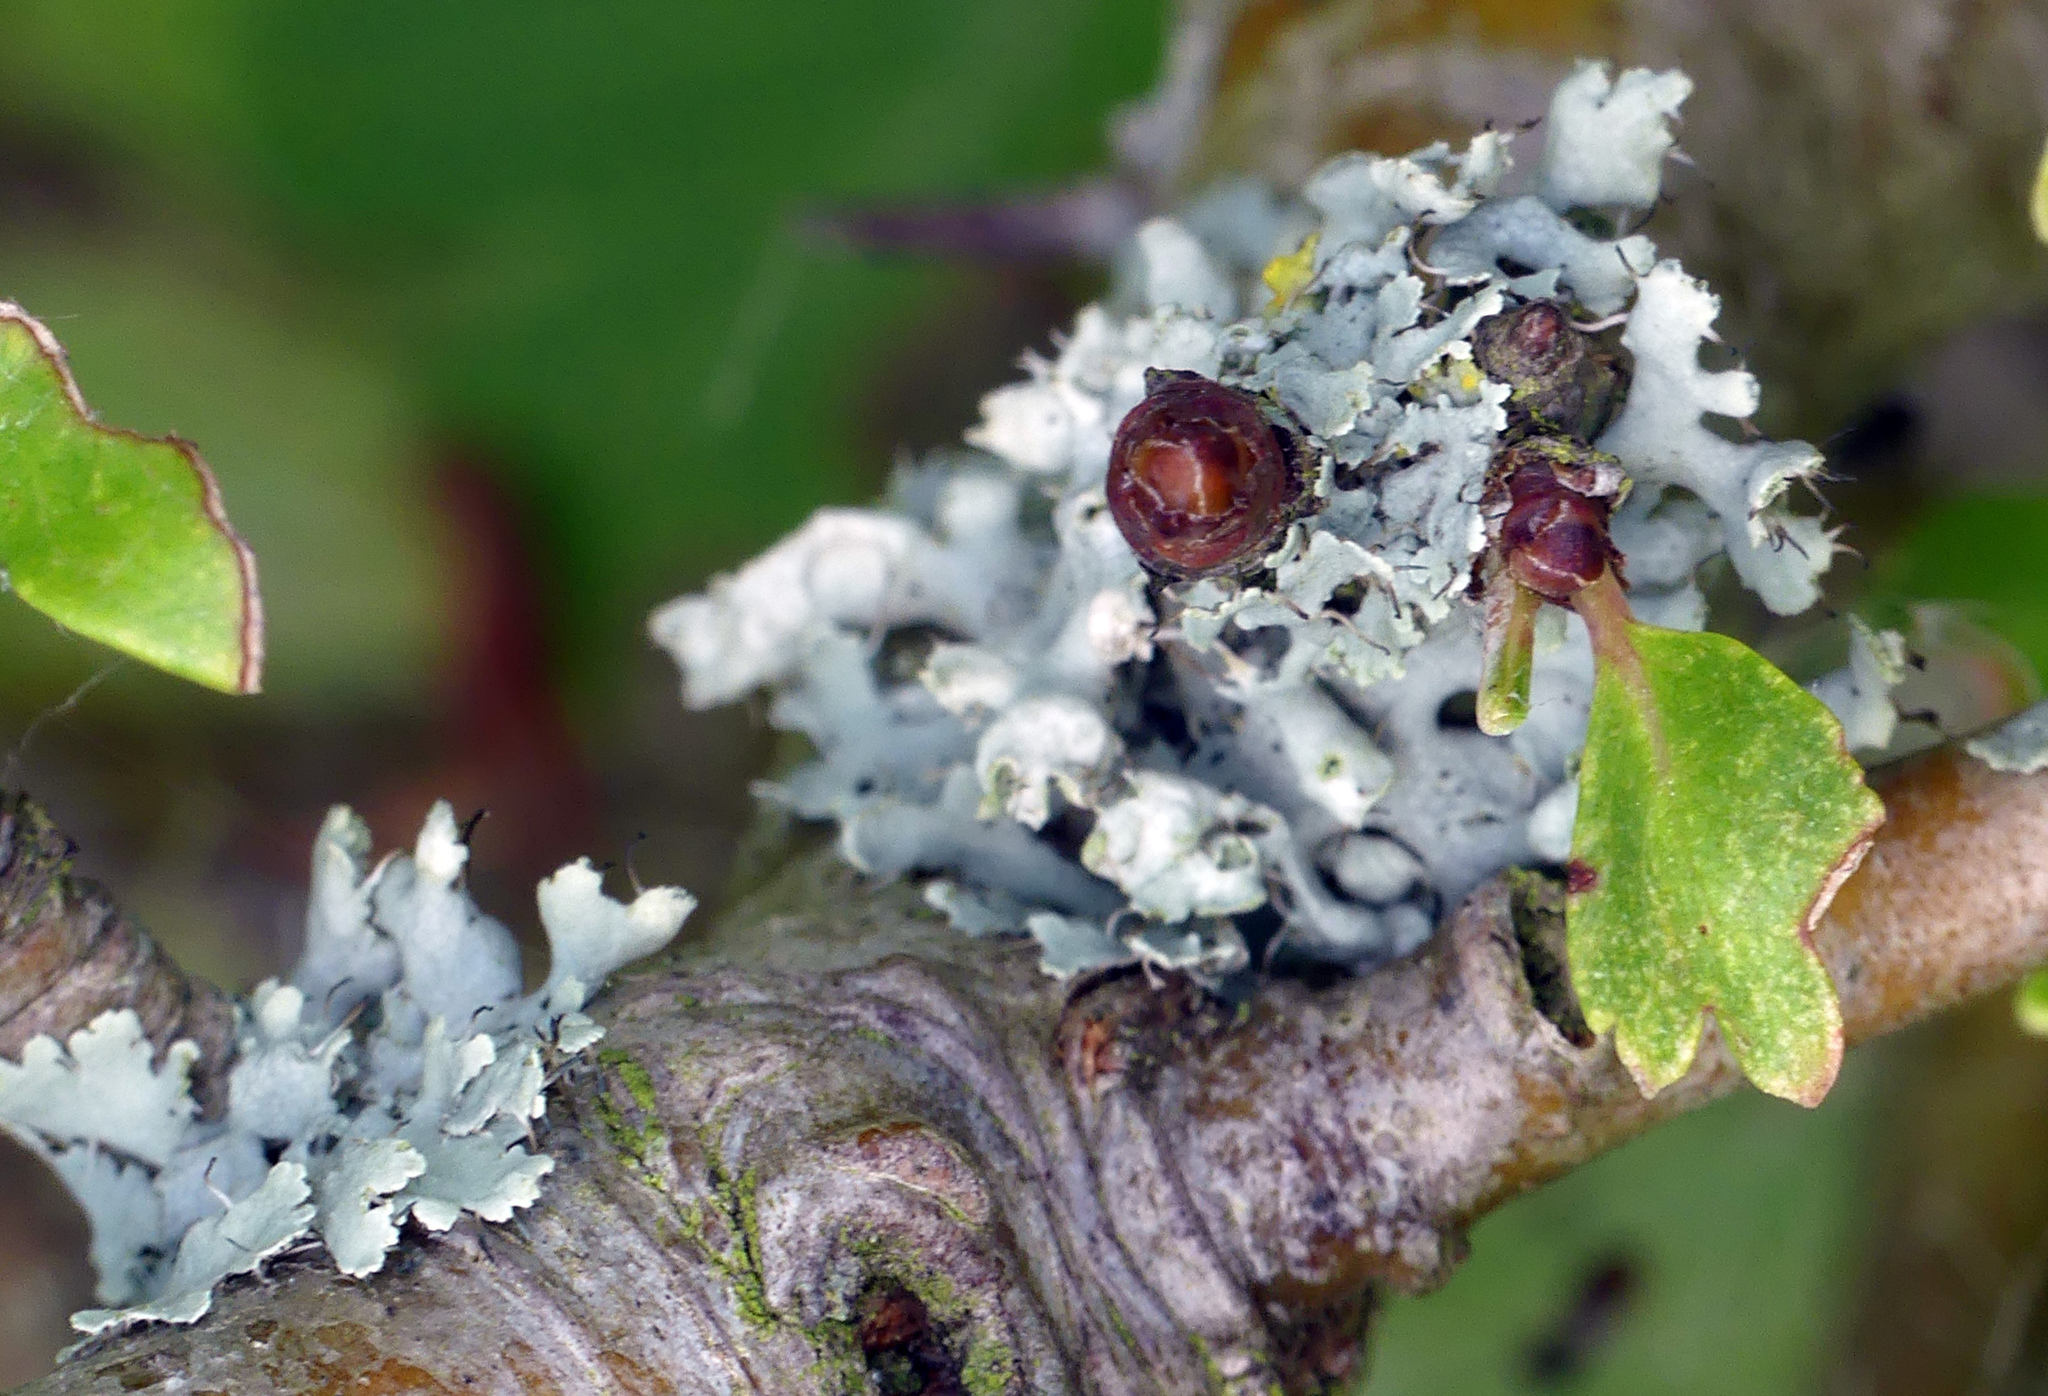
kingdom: Fungi
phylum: Ascomycota
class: Lecanoromycetes
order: Caliciales
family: Physciaceae
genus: Physcia
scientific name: Physcia adscendens
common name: Hooded rosette lichen
